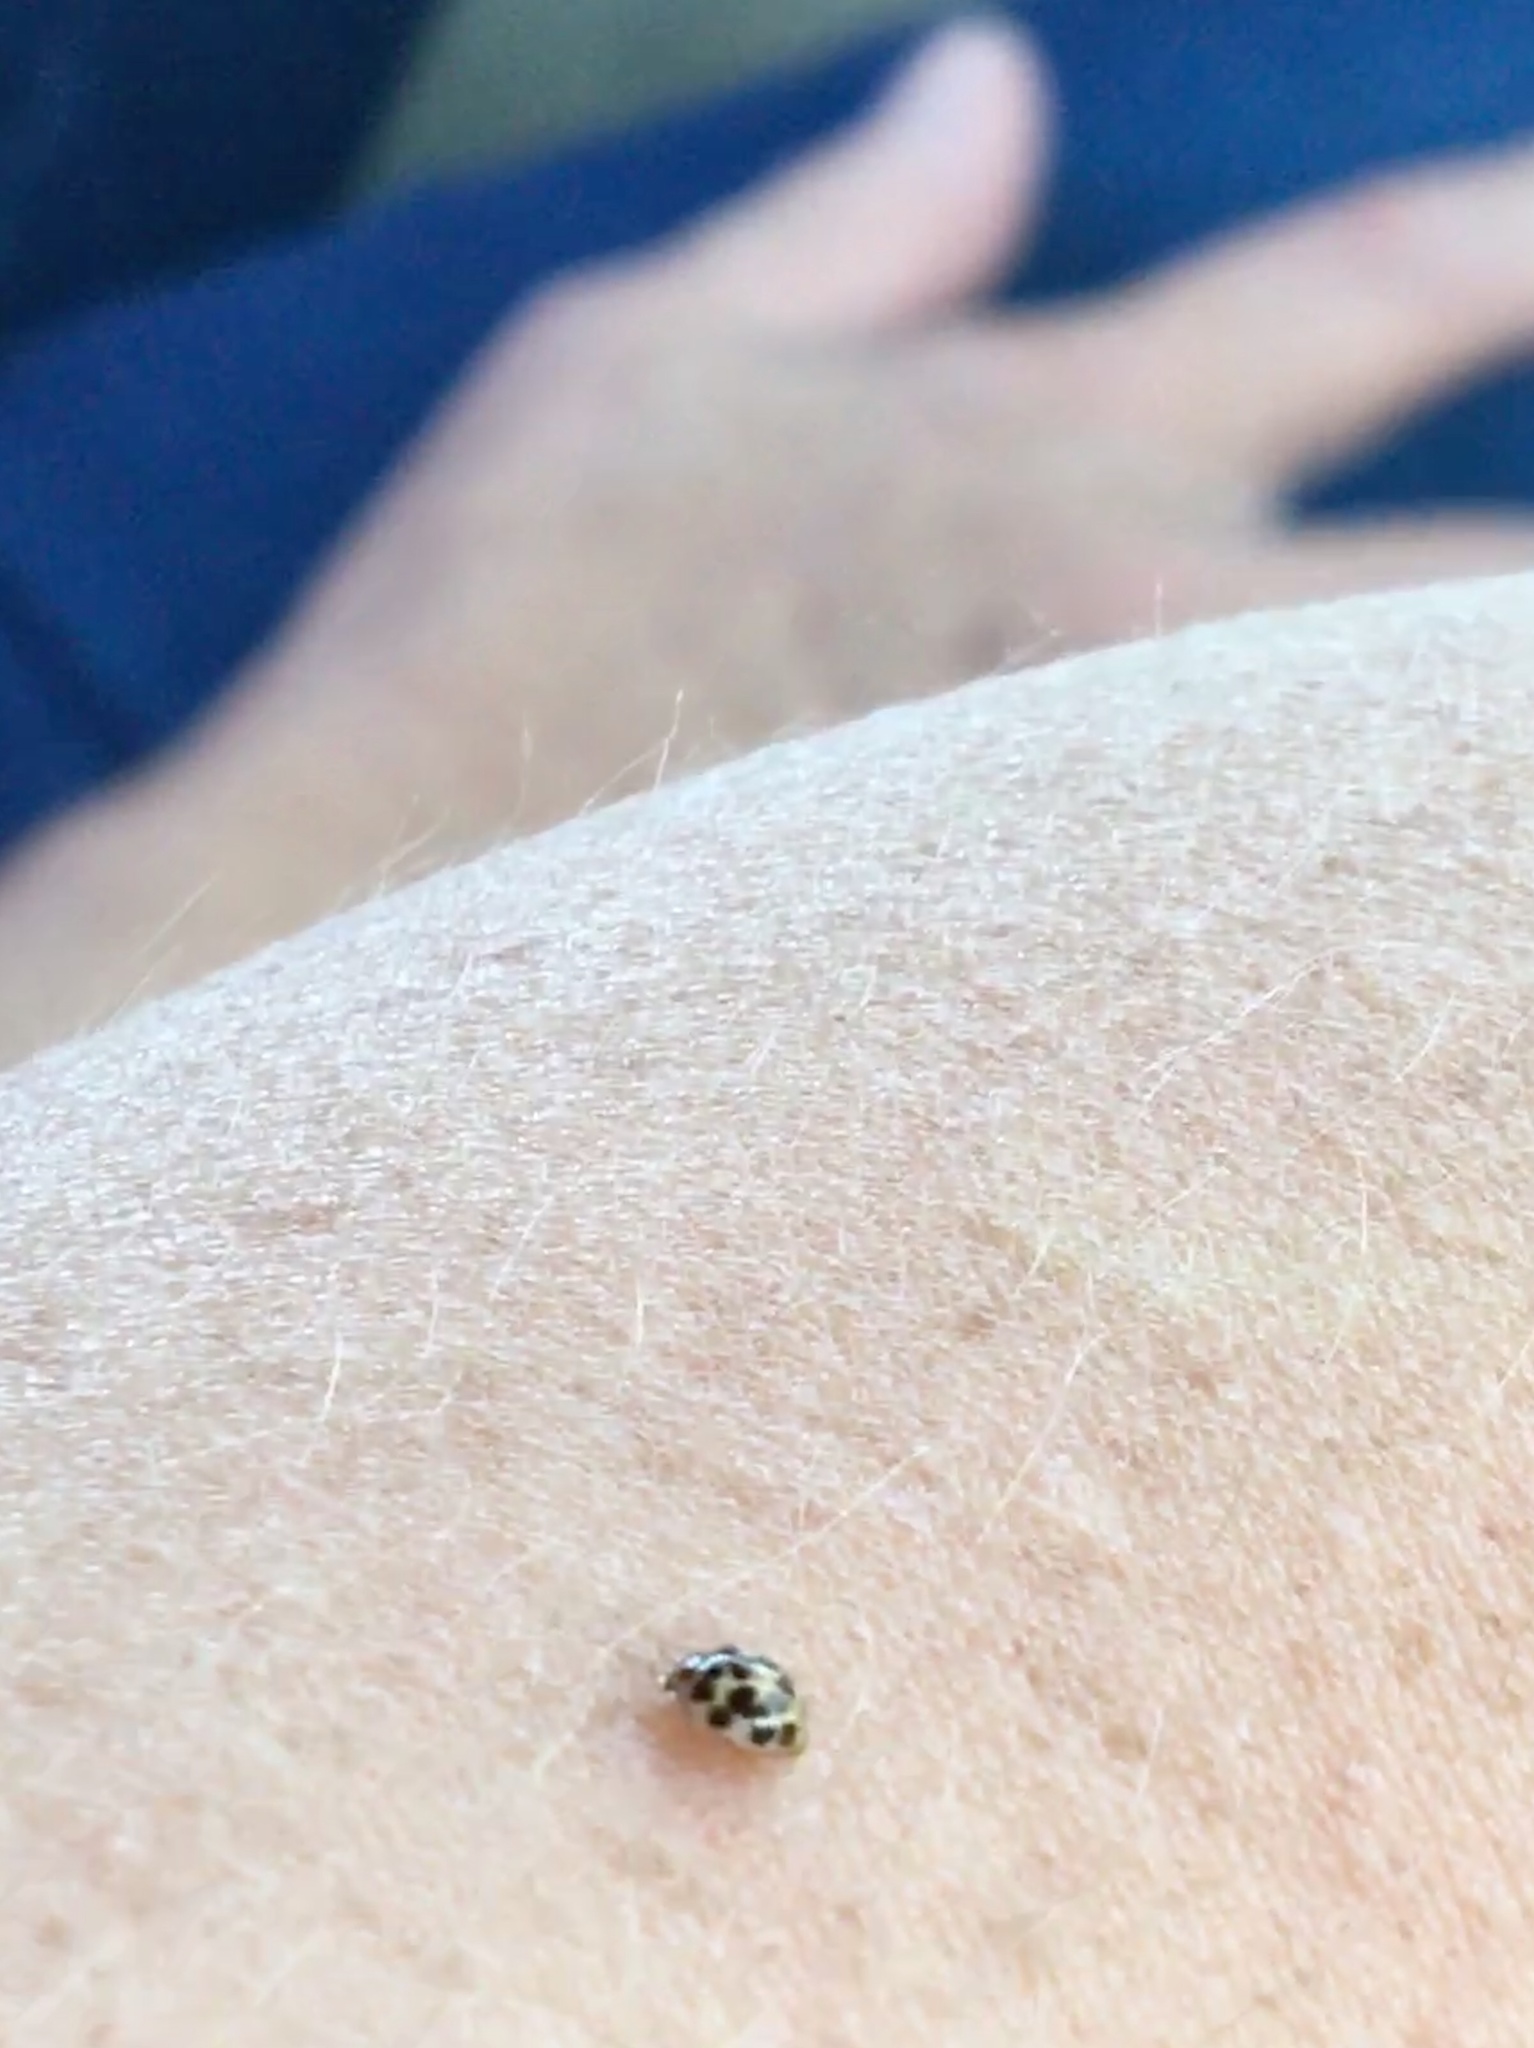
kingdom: Animalia
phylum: Arthropoda
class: Insecta
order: Coleoptera
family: Coccinellidae
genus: Psyllobora
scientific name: Psyllobora vigintimaculata
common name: Ladybird beetle
